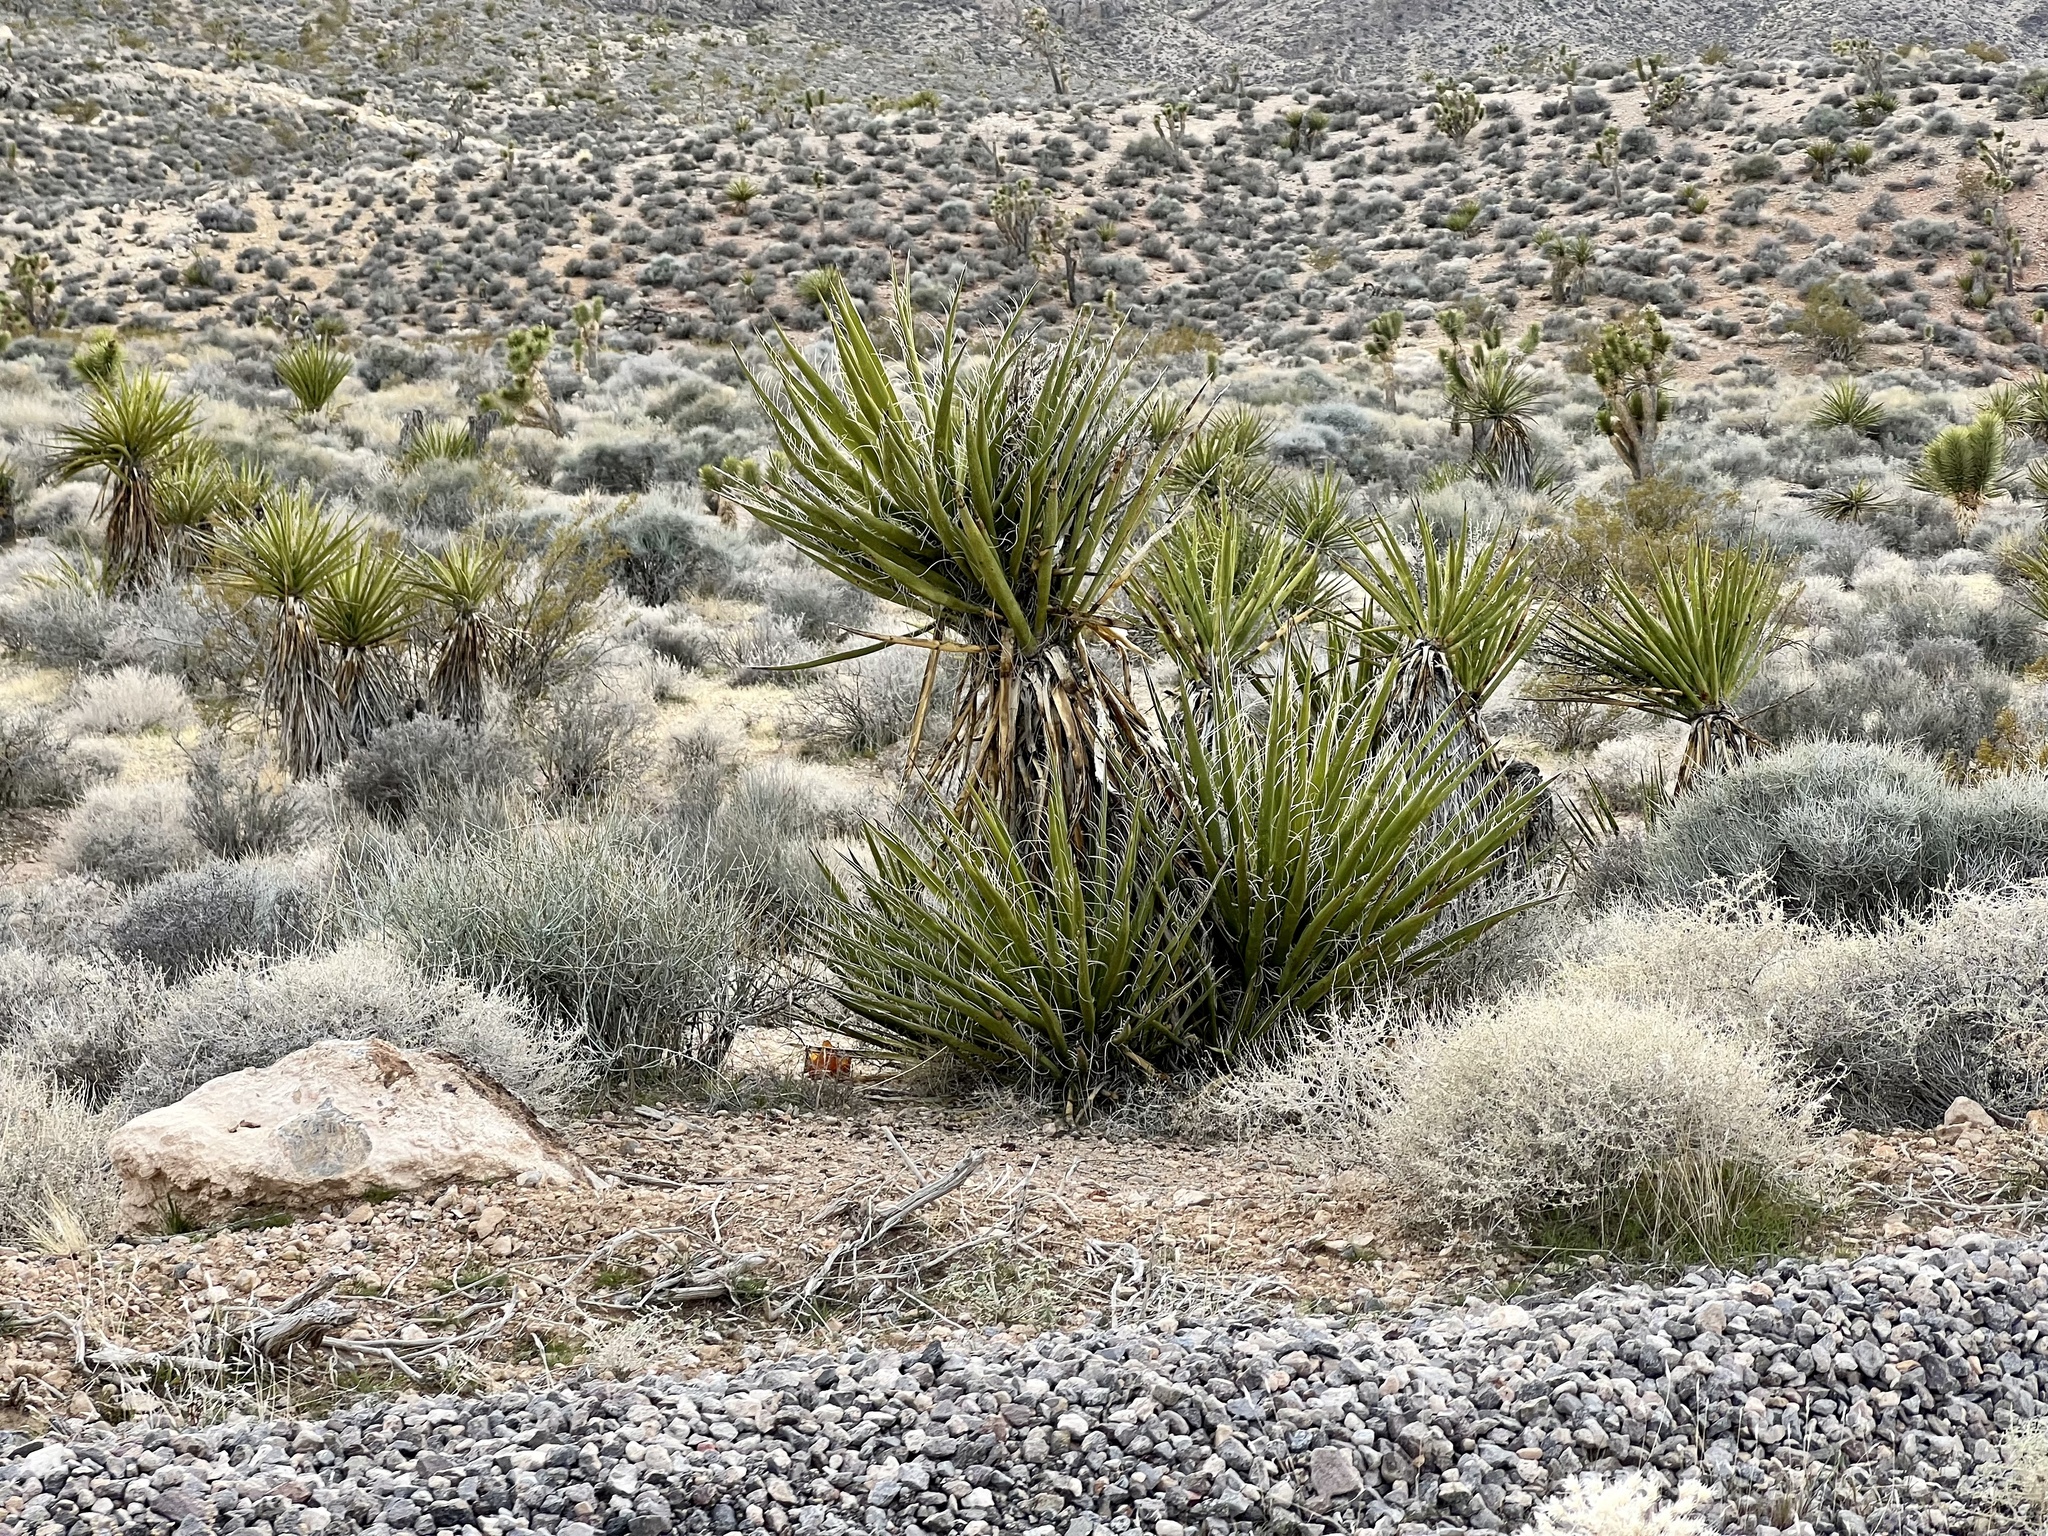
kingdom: Plantae
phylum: Tracheophyta
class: Liliopsida
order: Asparagales
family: Asparagaceae
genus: Yucca
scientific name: Yucca schidigera
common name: Mojave yucca
